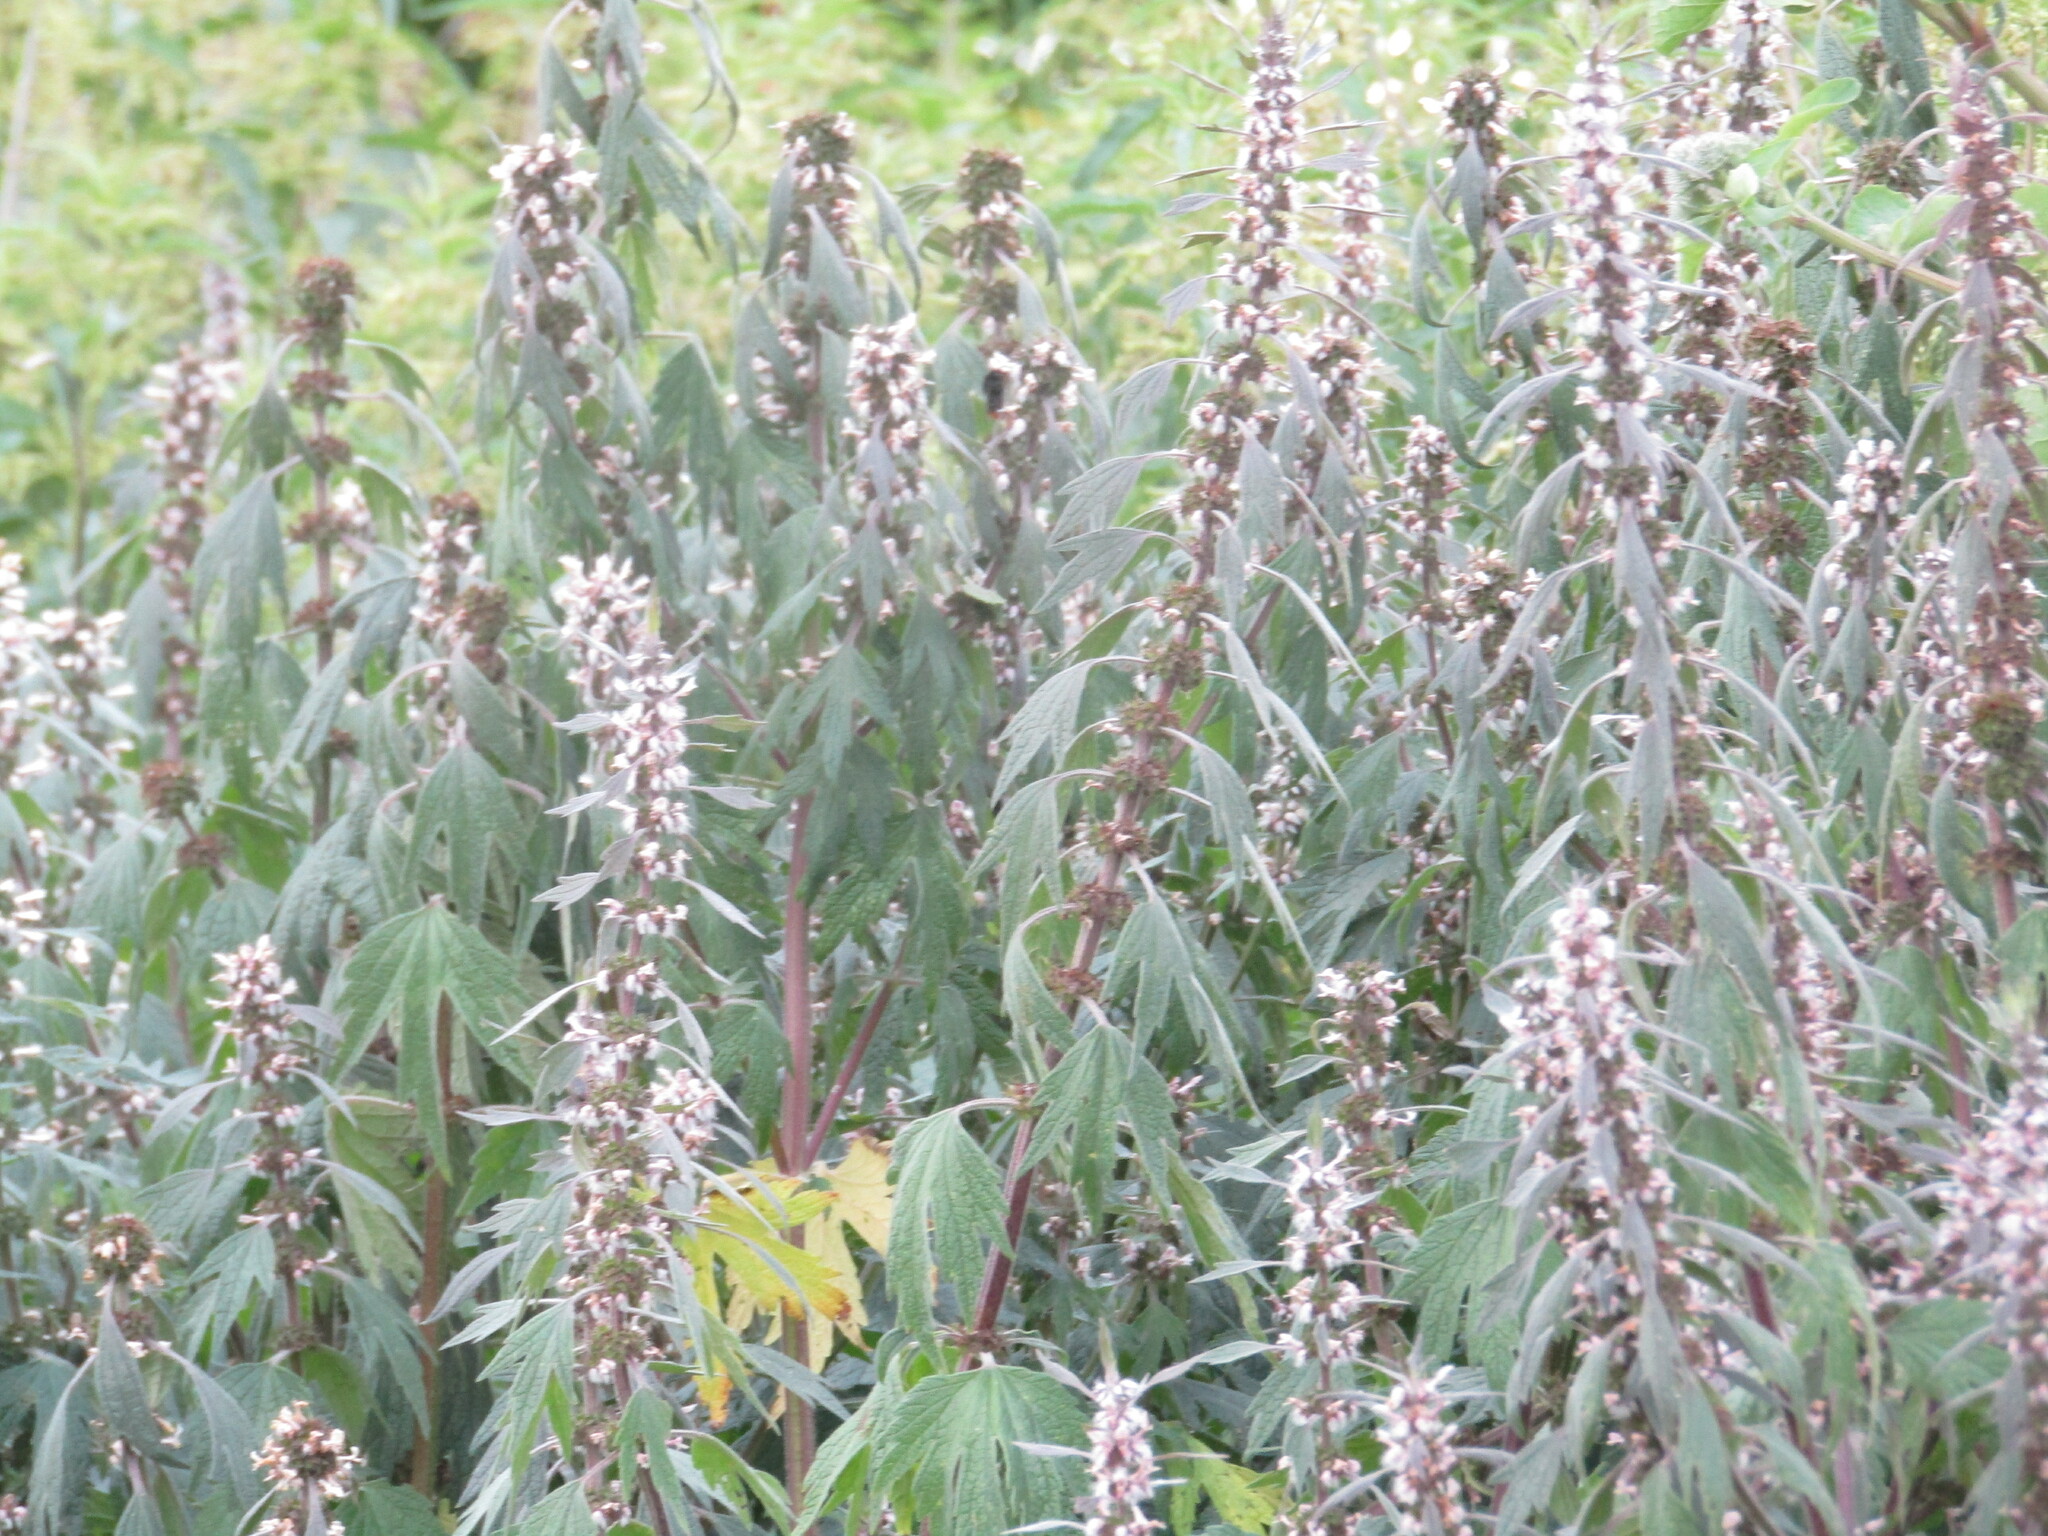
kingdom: Plantae
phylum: Tracheophyta
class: Magnoliopsida
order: Lamiales
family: Lamiaceae
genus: Leonurus
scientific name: Leonurus quinquelobatus
